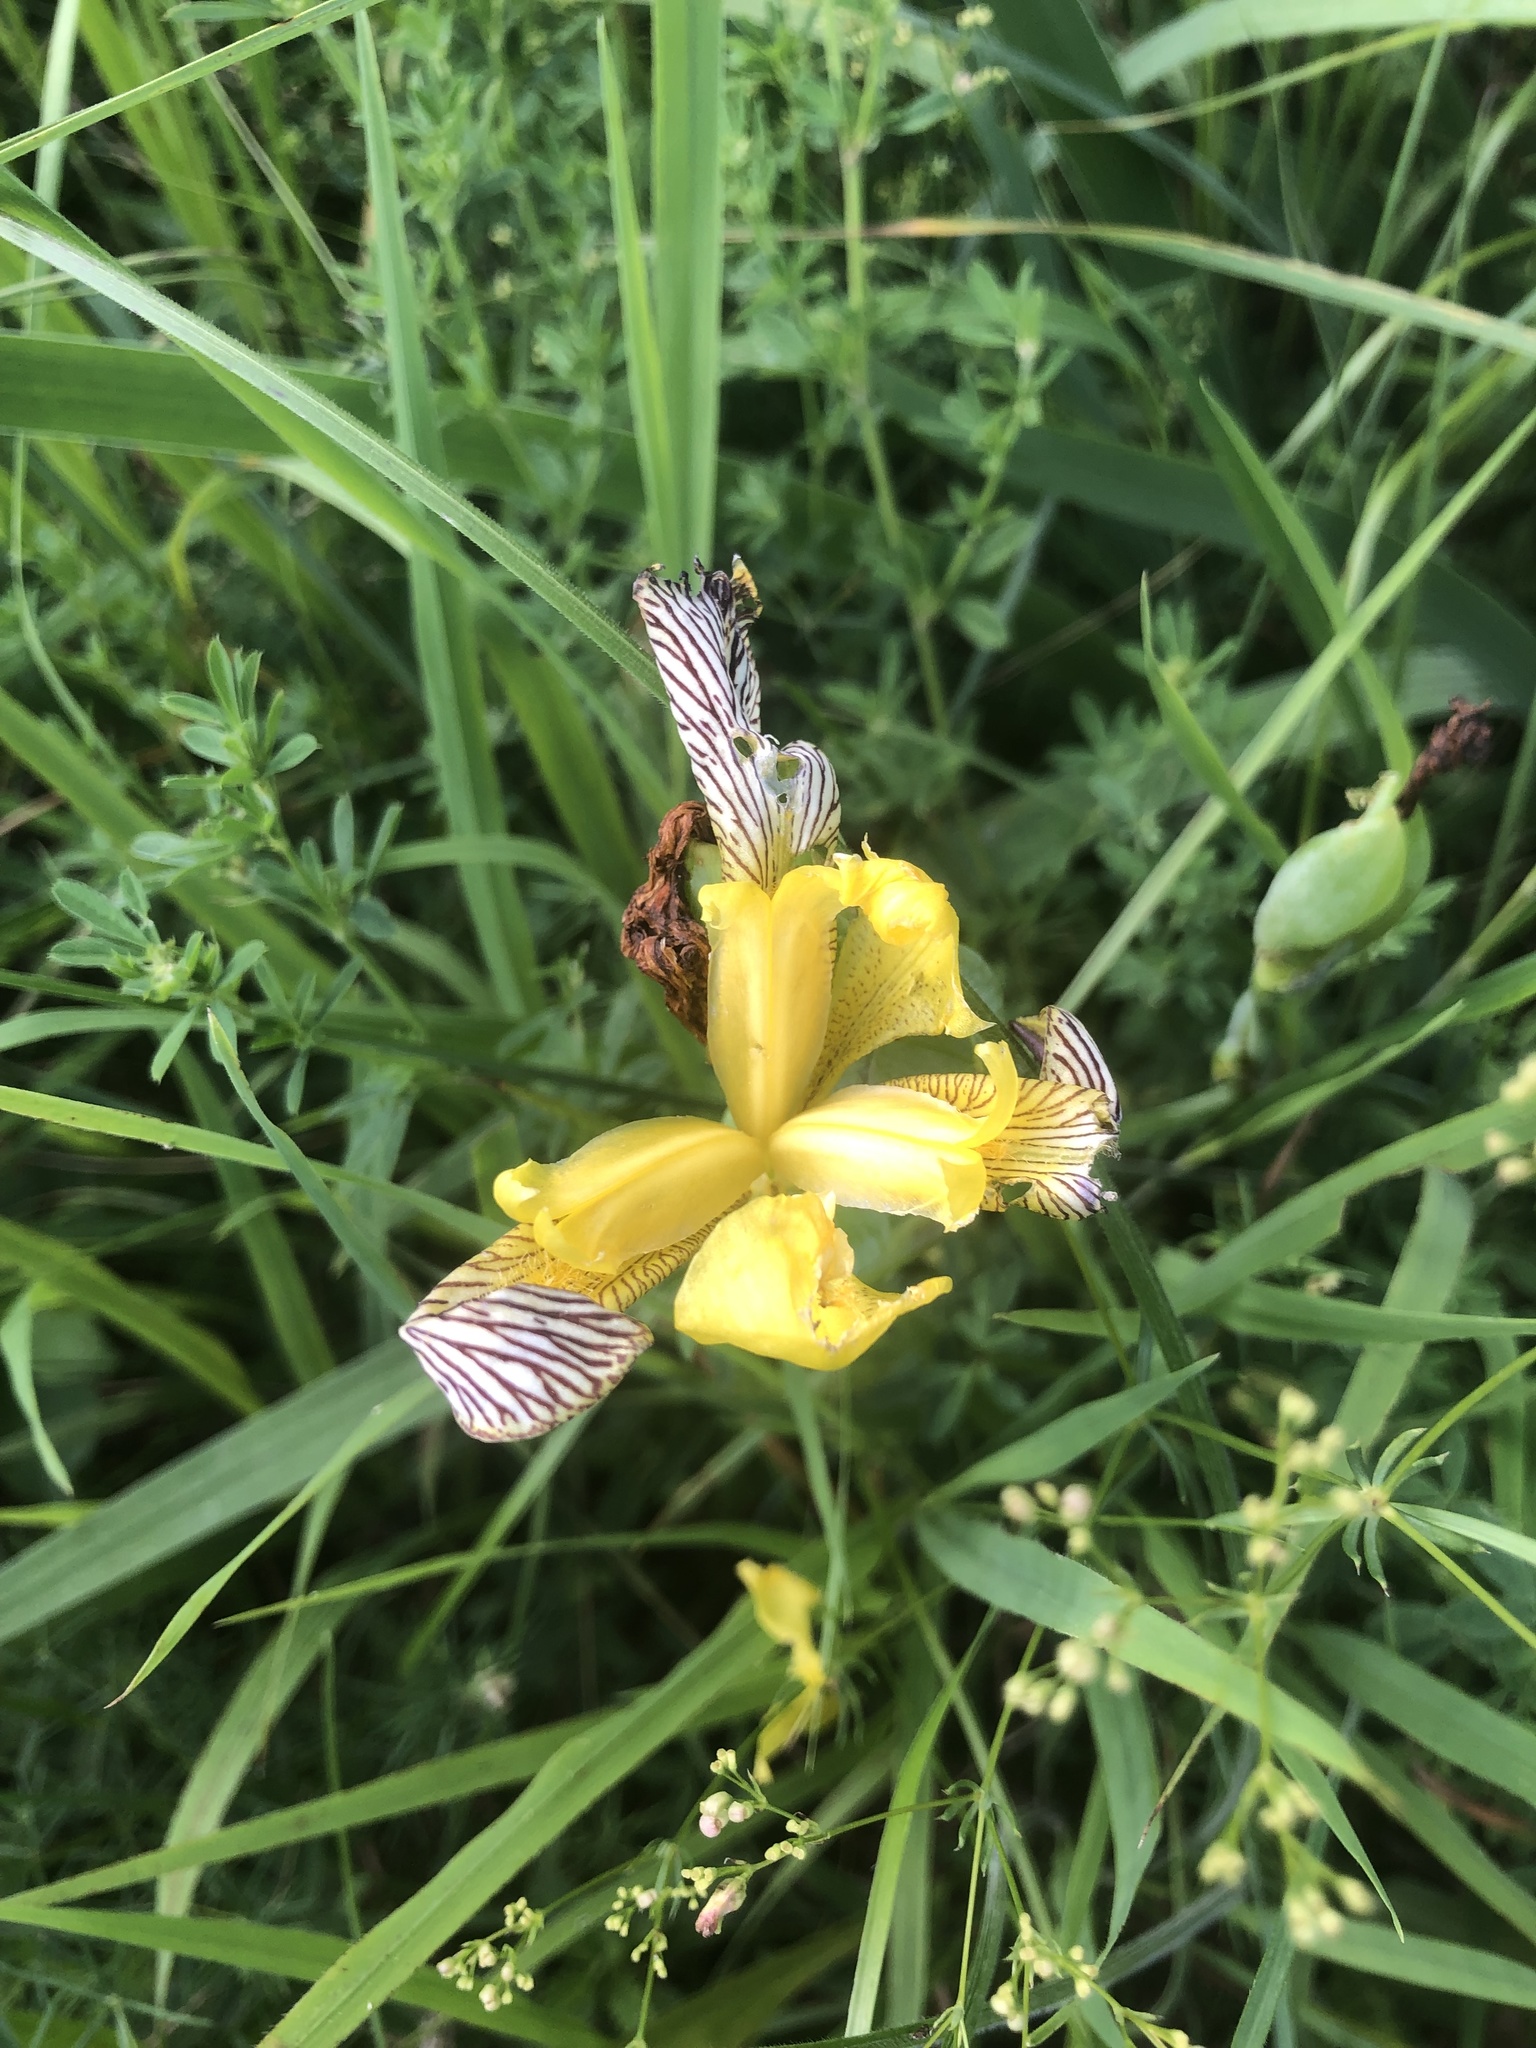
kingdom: Plantae
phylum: Tracheophyta
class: Liliopsida
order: Asparagales
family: Iridaceae
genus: Iris
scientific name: Iris variegata
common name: Hungarian iris
